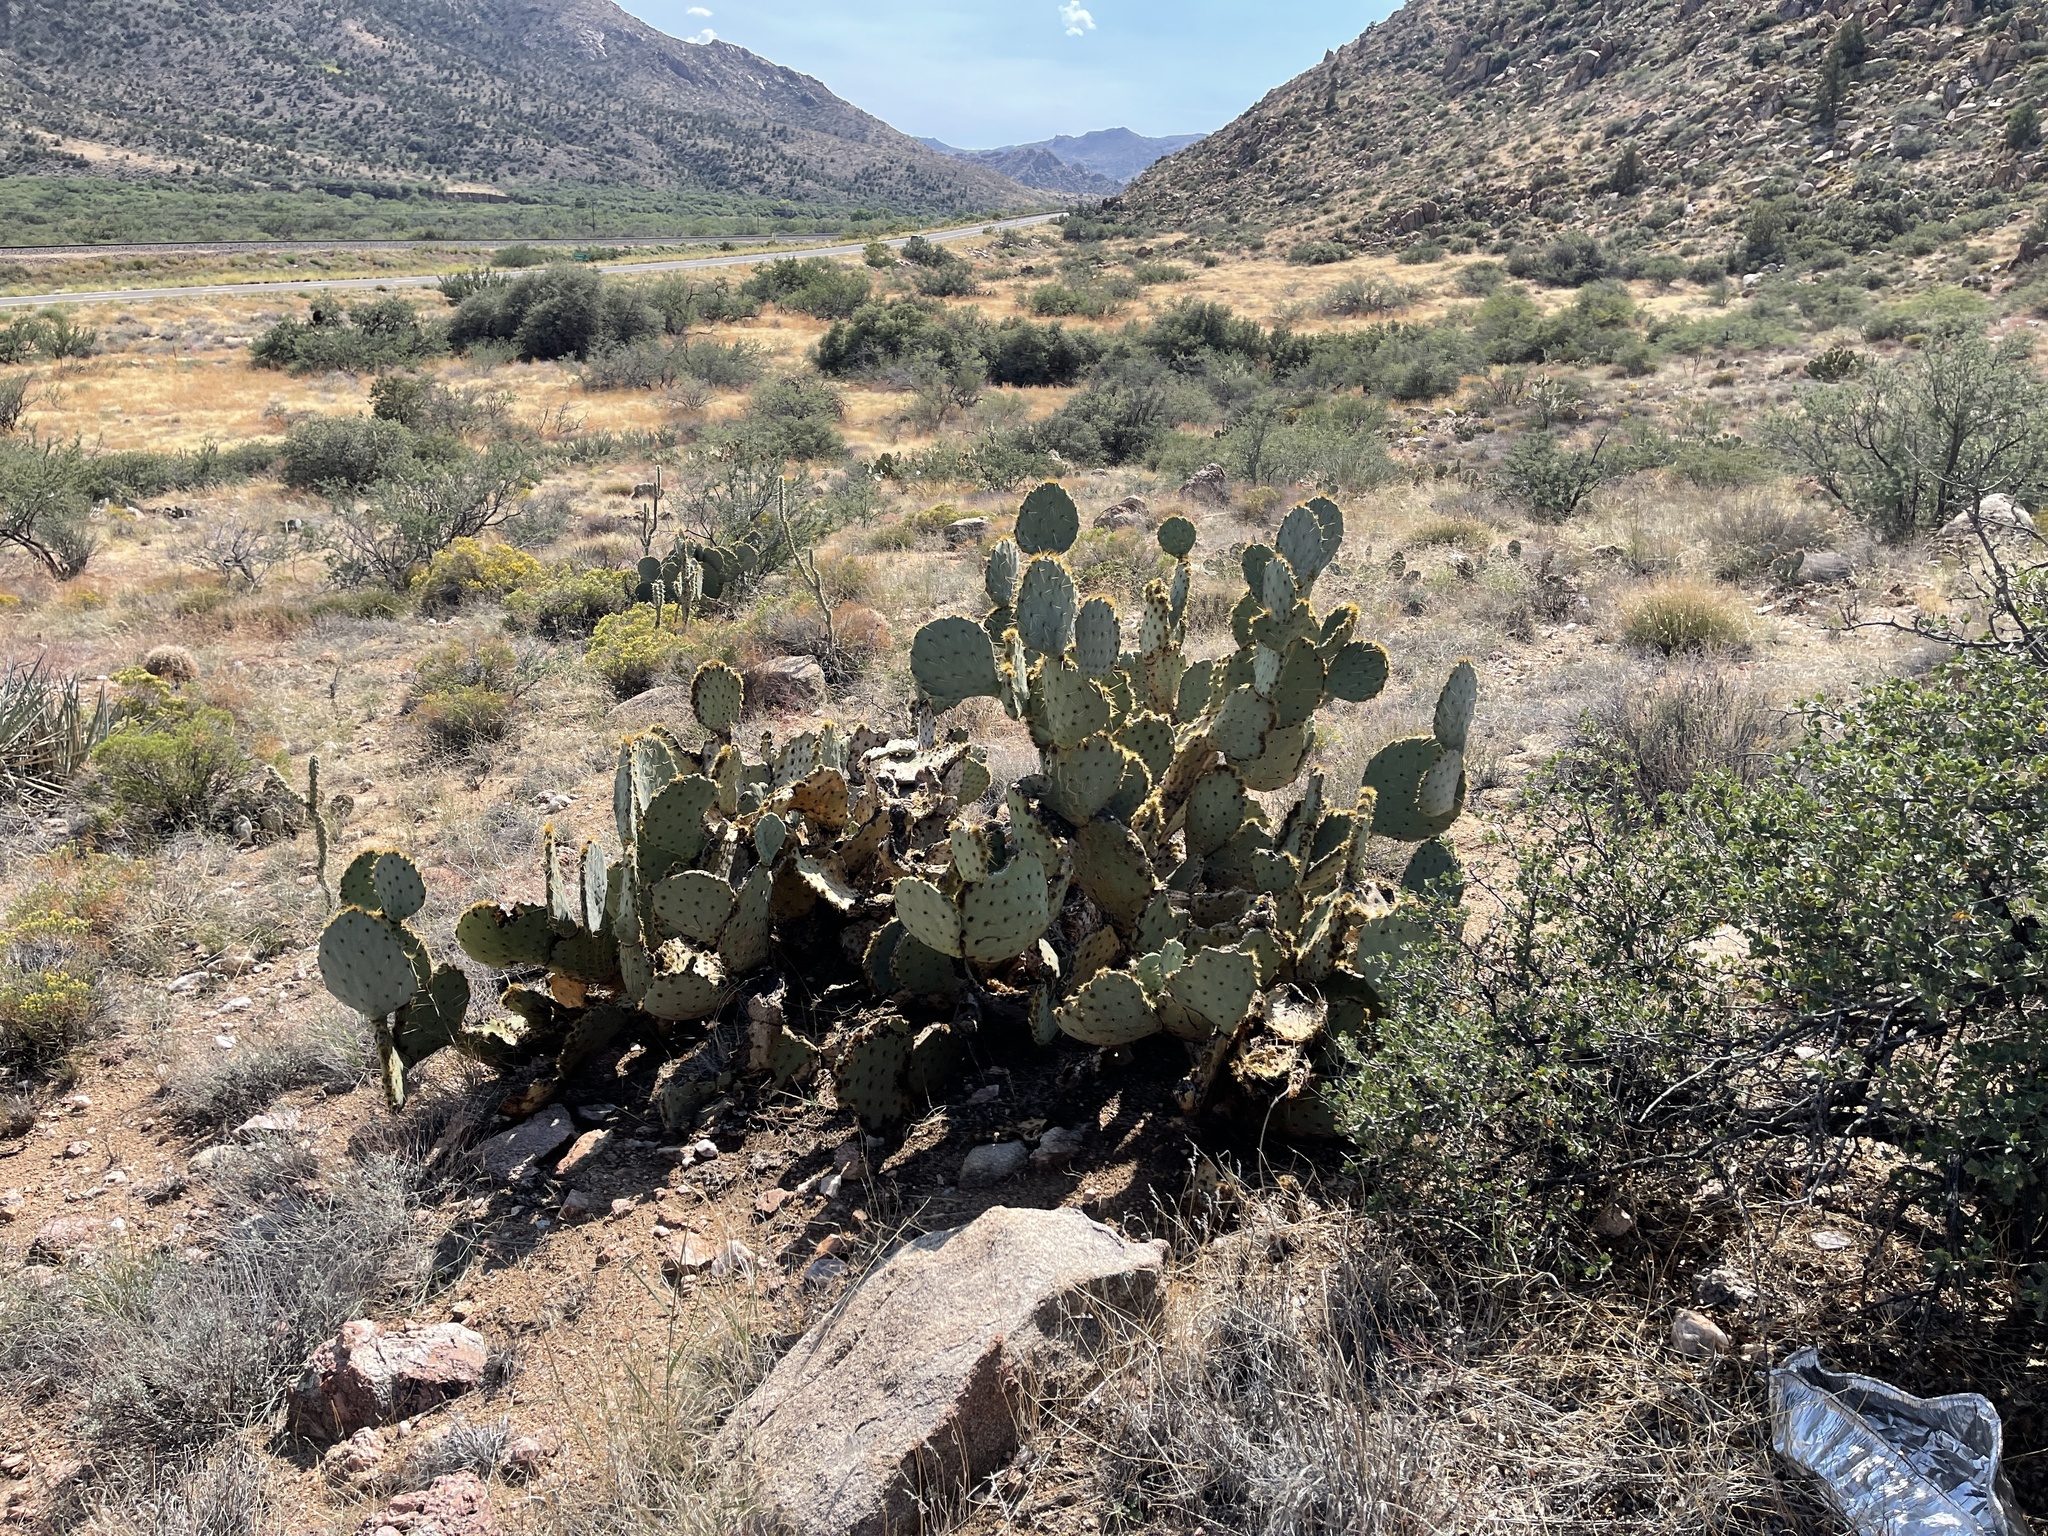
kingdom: Plantae
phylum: Tracheophyta
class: Magnoliopsida
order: Caryophyllales
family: Cactaceae
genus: Opuntia
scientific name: Opuntia engelmannii
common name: Cactus-apple
